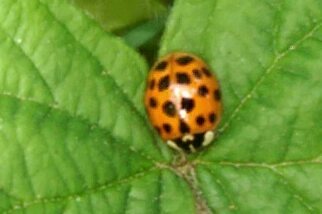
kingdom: Animalia
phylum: Arthropoda
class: Insecta
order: Coleoptera
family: Coccinellidae
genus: Harmonia
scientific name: Harmonia axyridis
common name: Harlequin ladybird
